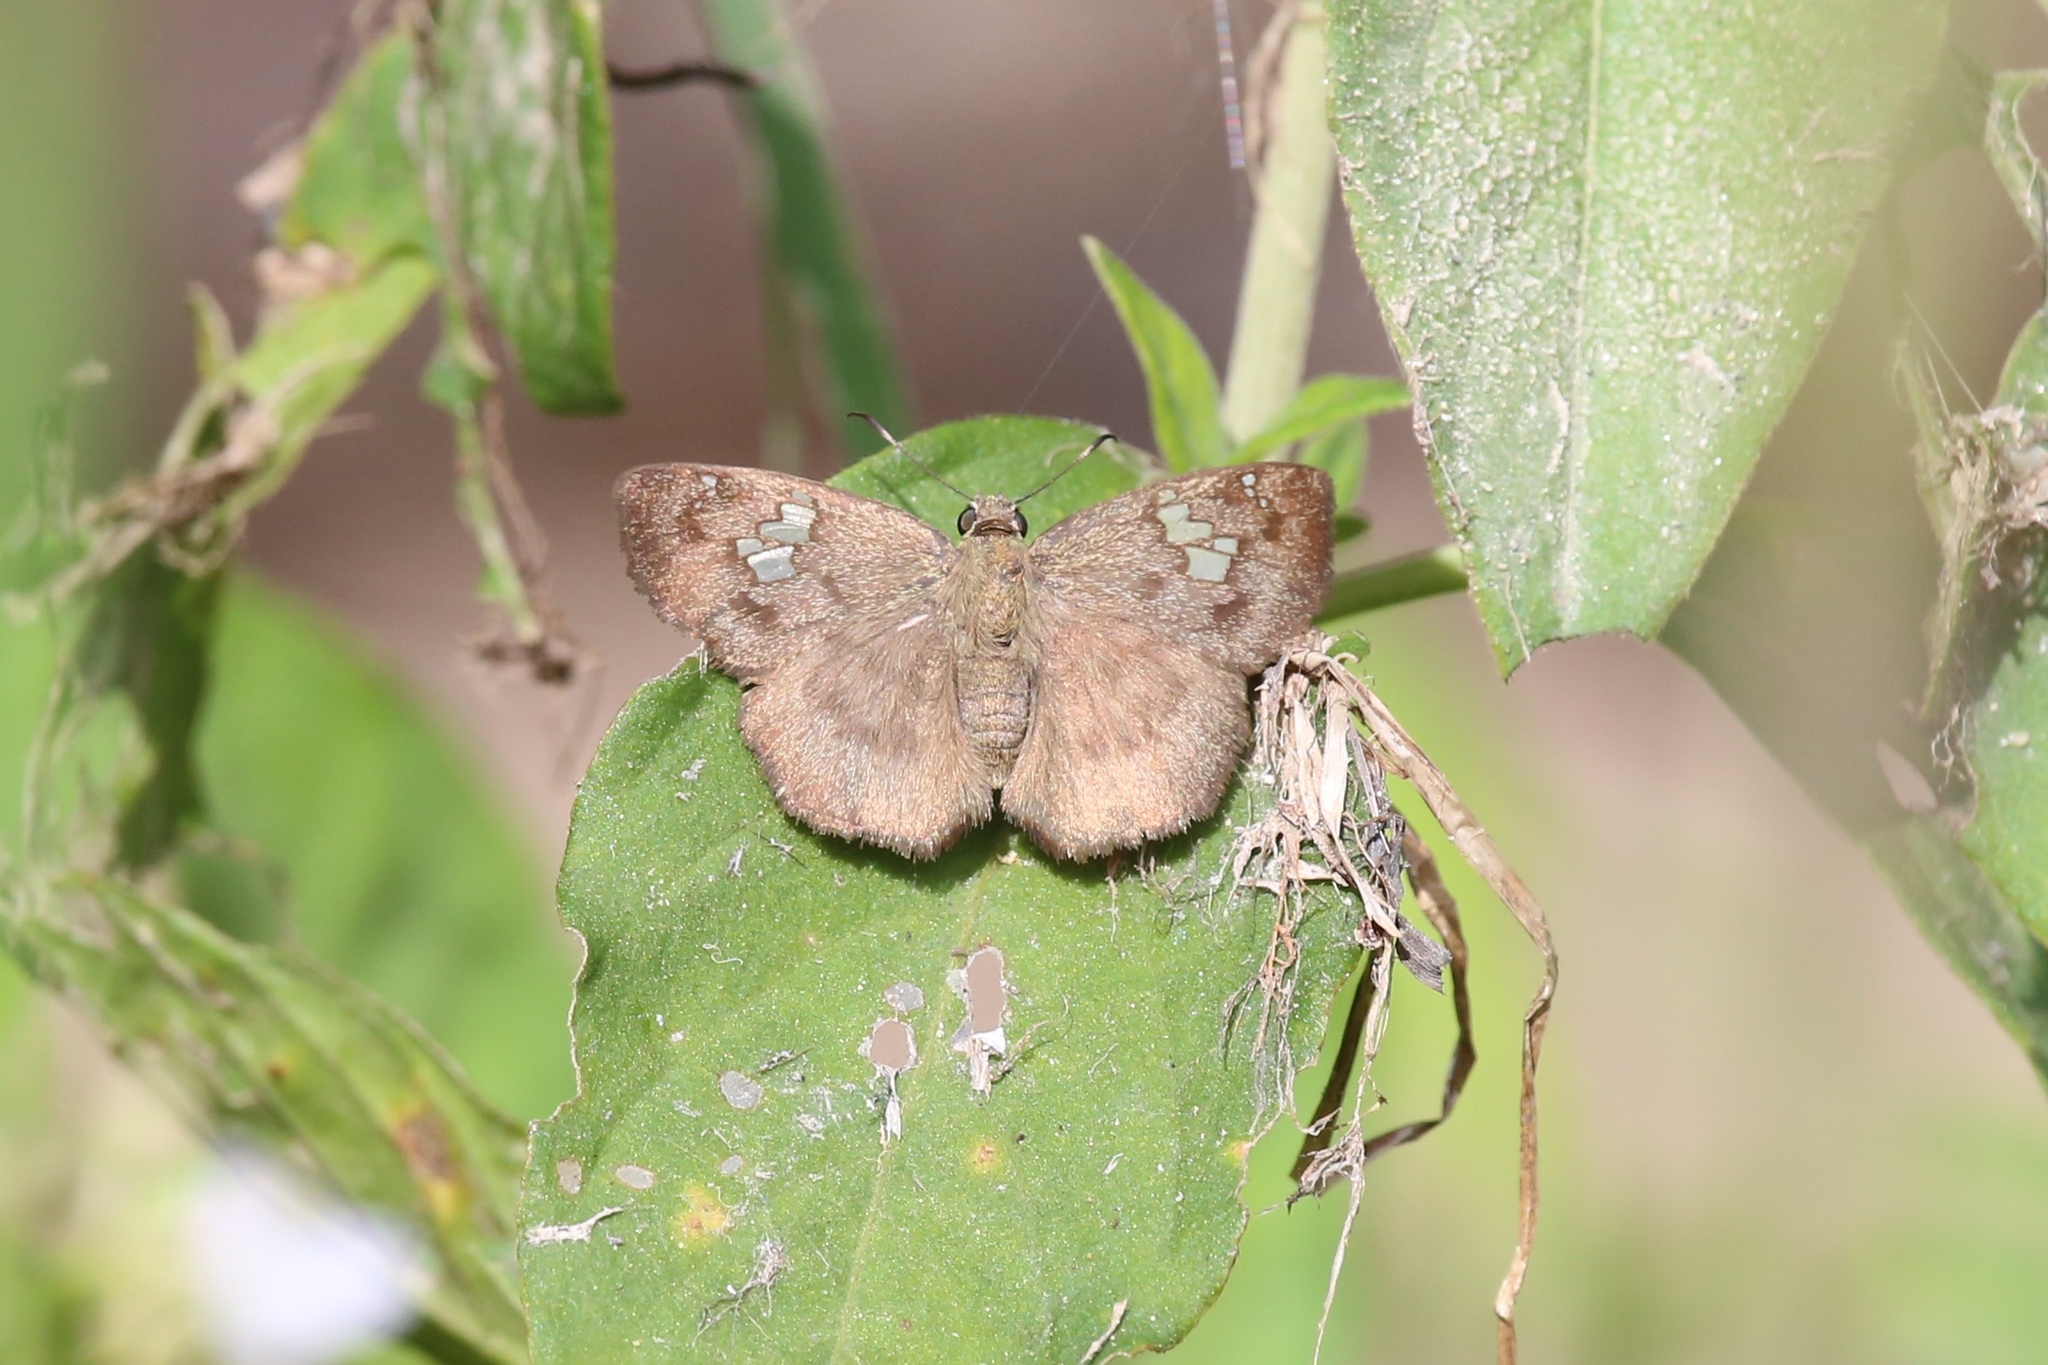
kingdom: Animalia
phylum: Arthropoda
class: Insecta
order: Lepidoptera
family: Hesperiidae
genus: Telemiades
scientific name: Telemiades amphion
